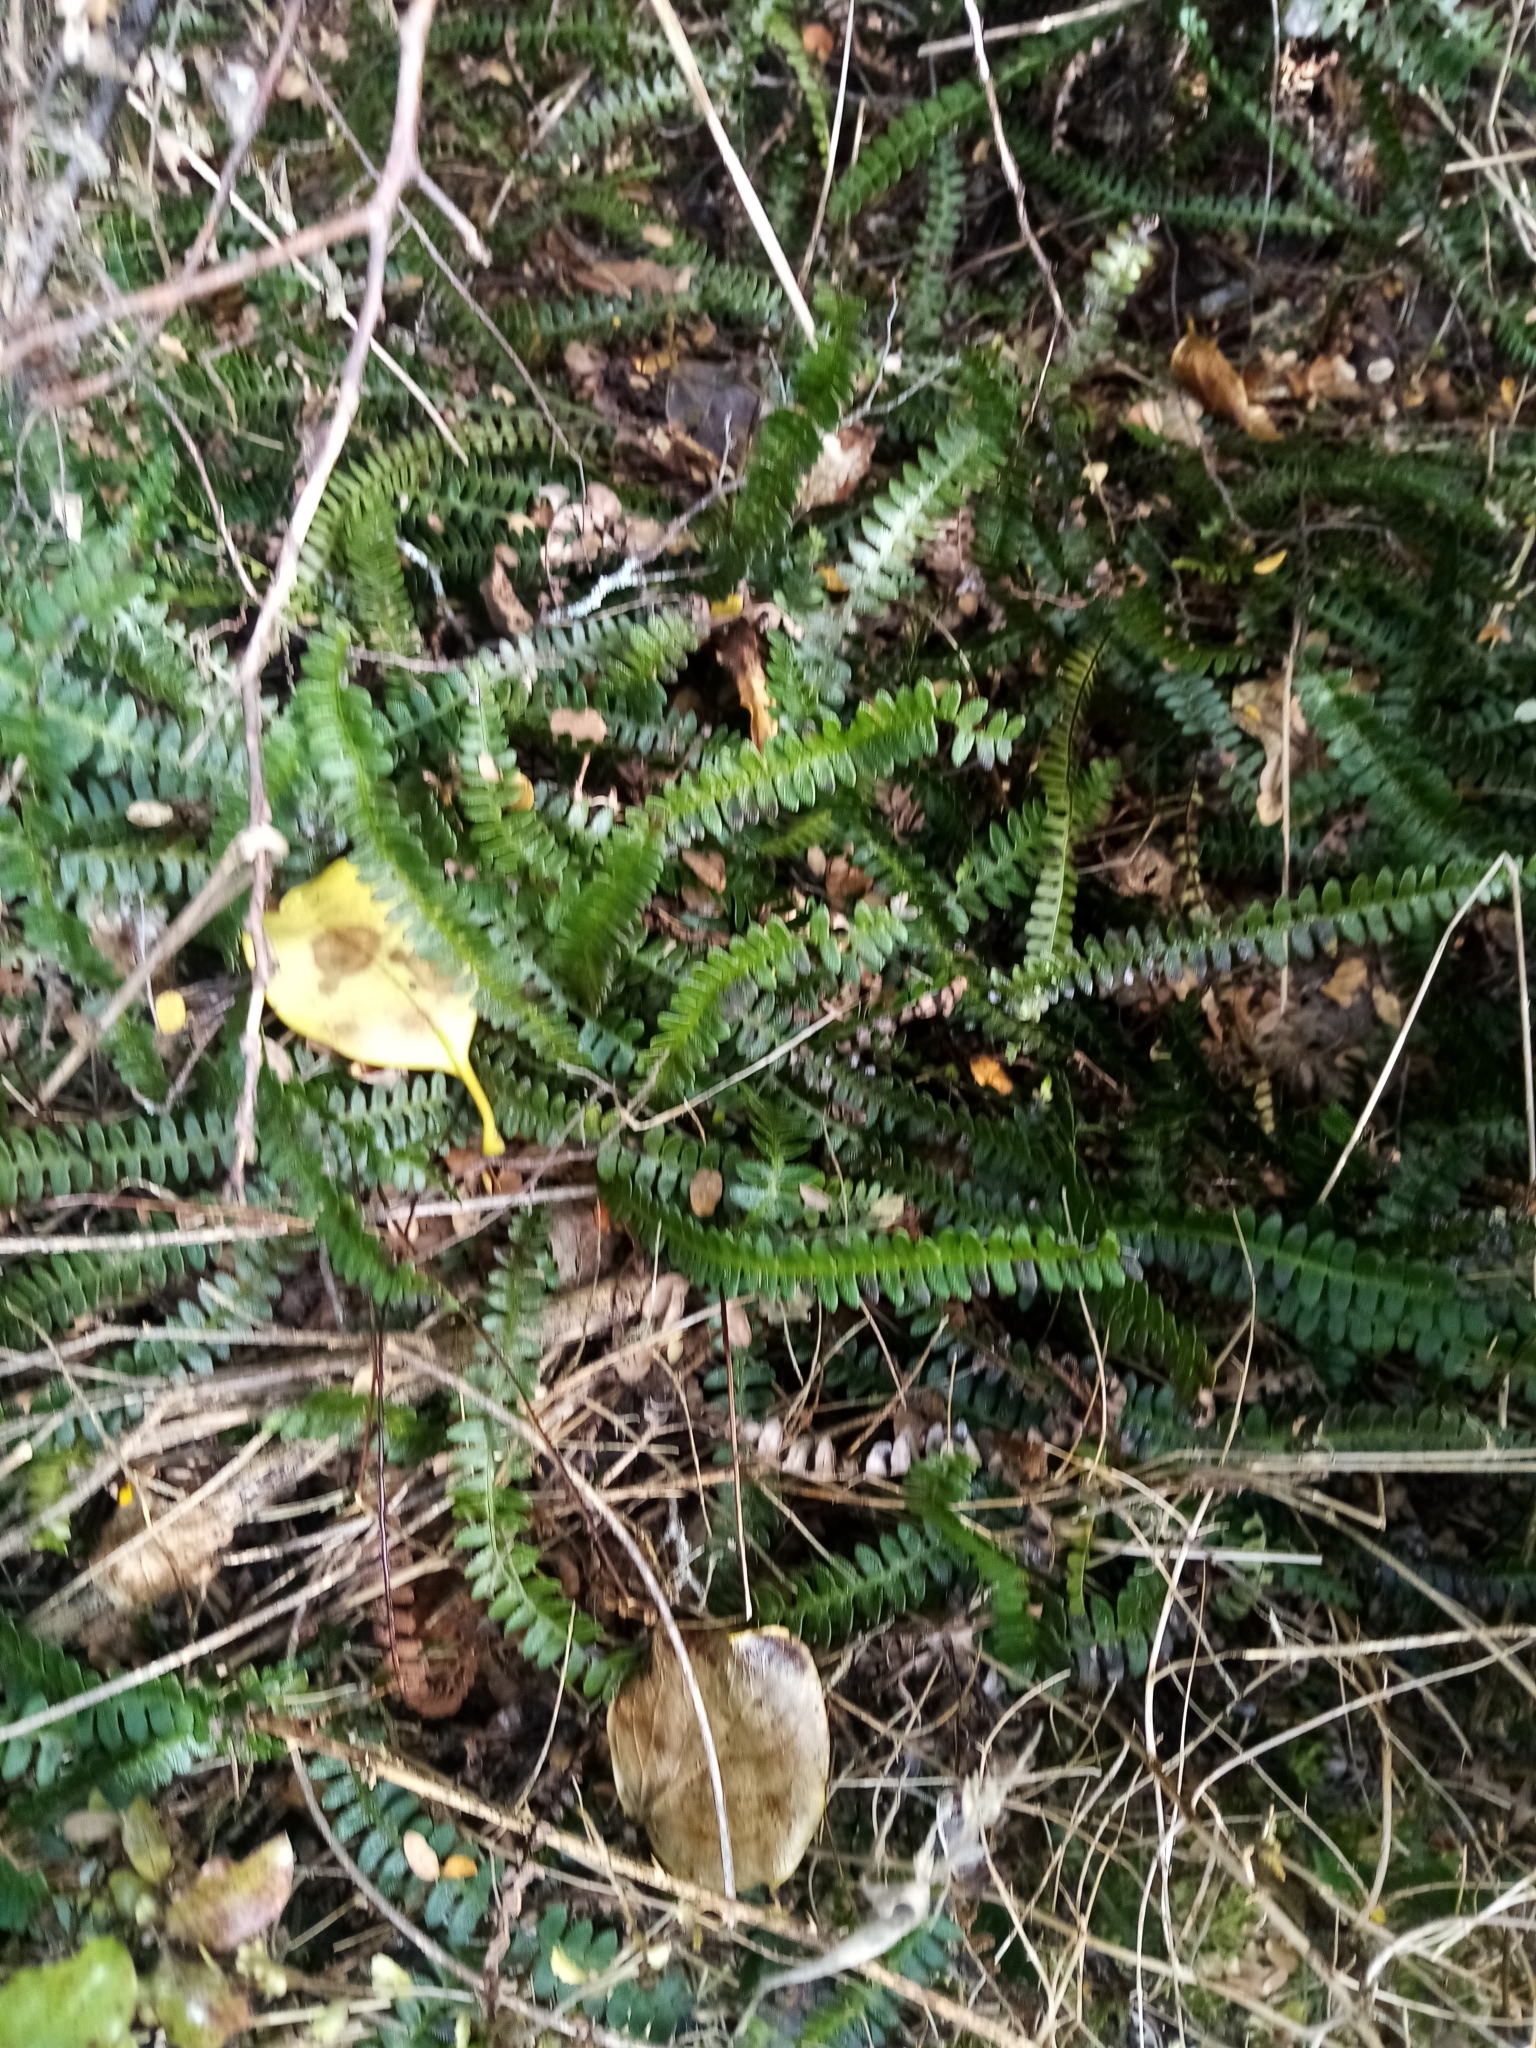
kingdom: Plantae
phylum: Tracheophyta
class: Polypodiopsida
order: Polypodiales
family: Blechnaceae
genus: Austroblechnum
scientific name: Austroblechnum penna-marina
